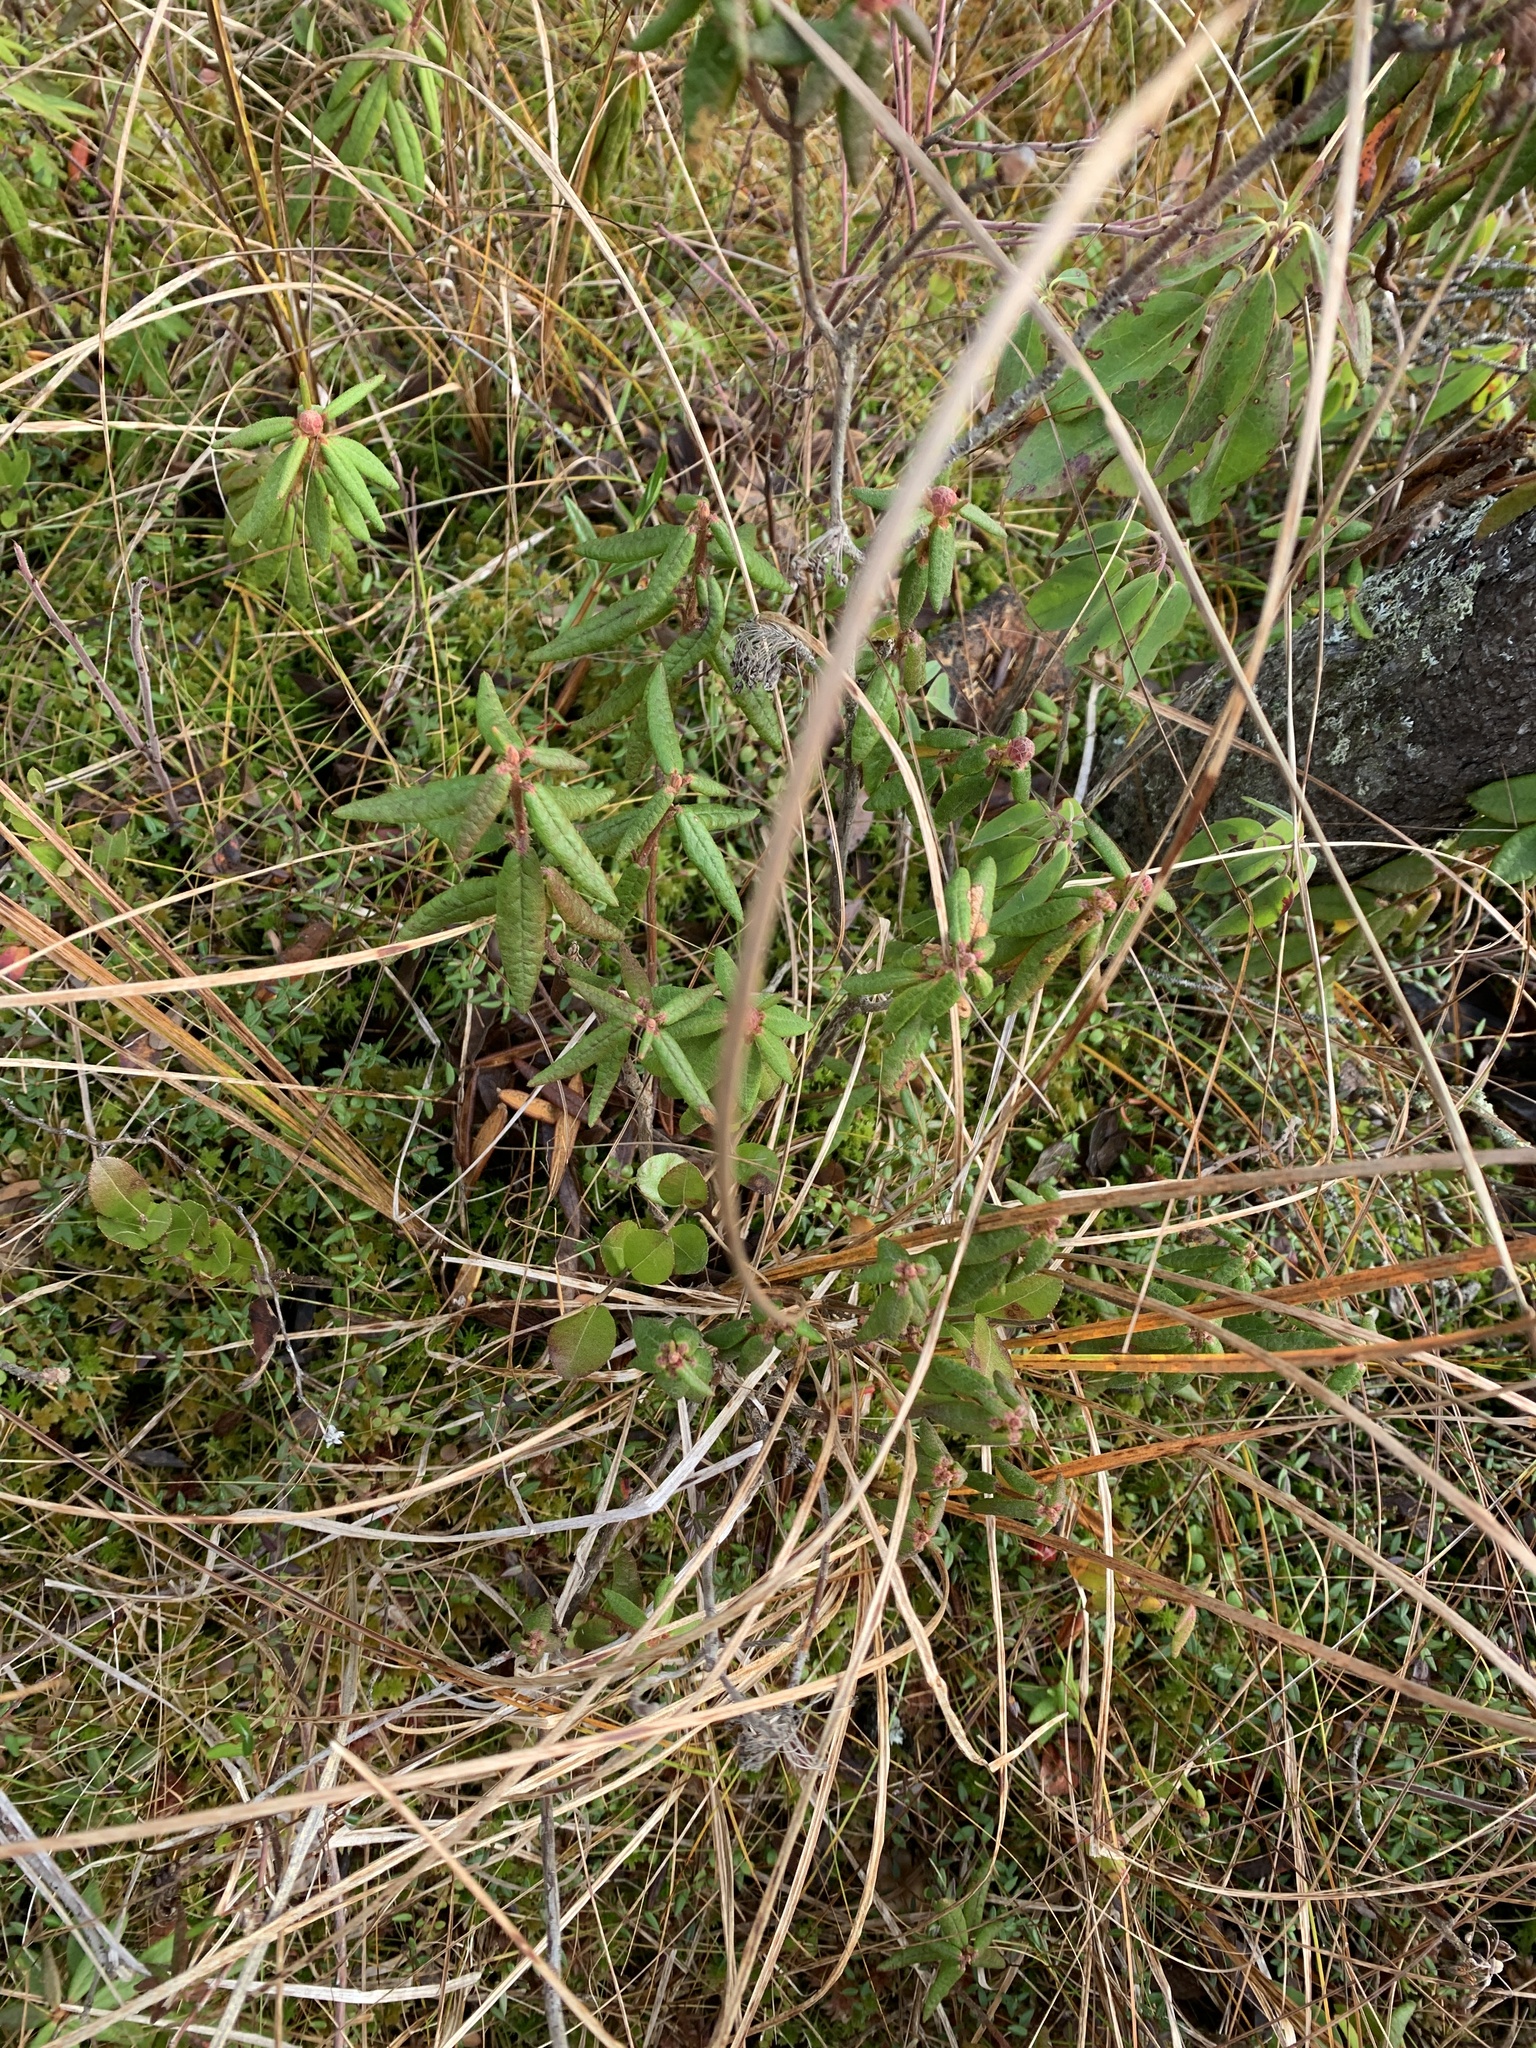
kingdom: Plantae
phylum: Tracheophyta
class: Magnoliopsida
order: Ericales
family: Ericaceae
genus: Rhododendron
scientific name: Rhododendron groenlandicum
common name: Bog labrador tea
